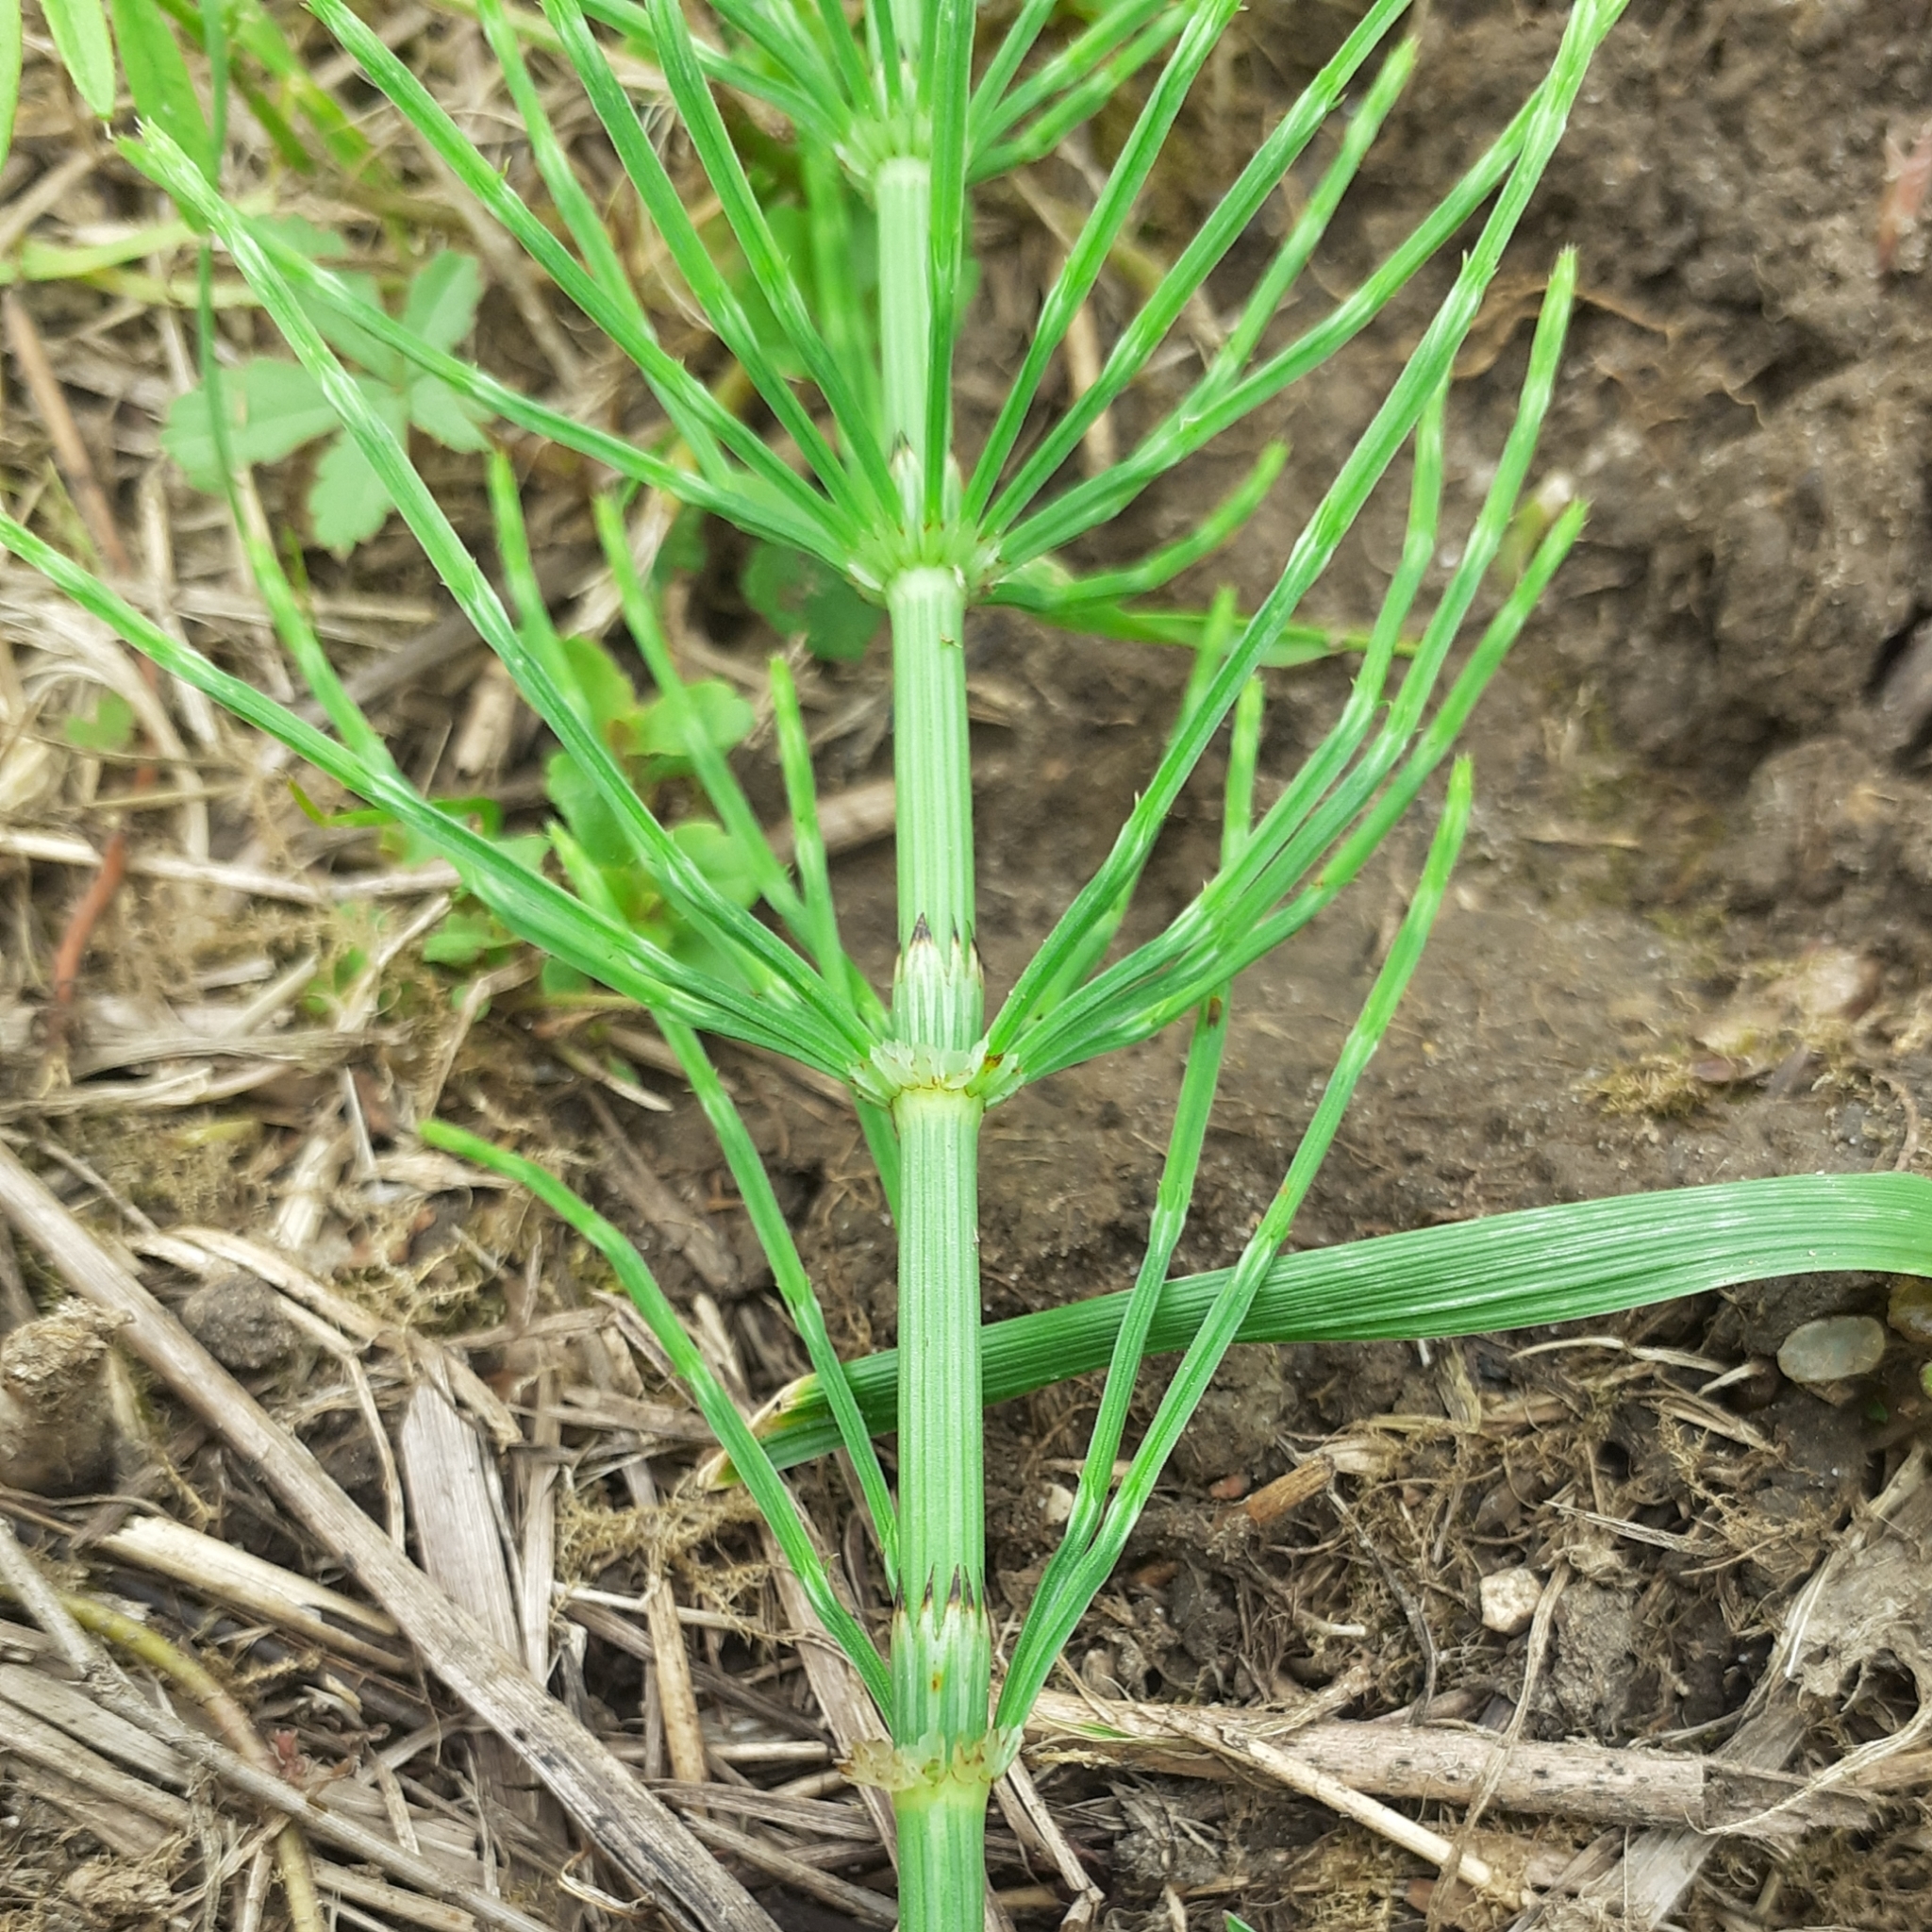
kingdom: Plantae
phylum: Tracheophyta
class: Polypodiopsida
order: Equisetales
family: Equisetaceae
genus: Equisetum
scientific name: Equisetum arvense
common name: Field horsetail
